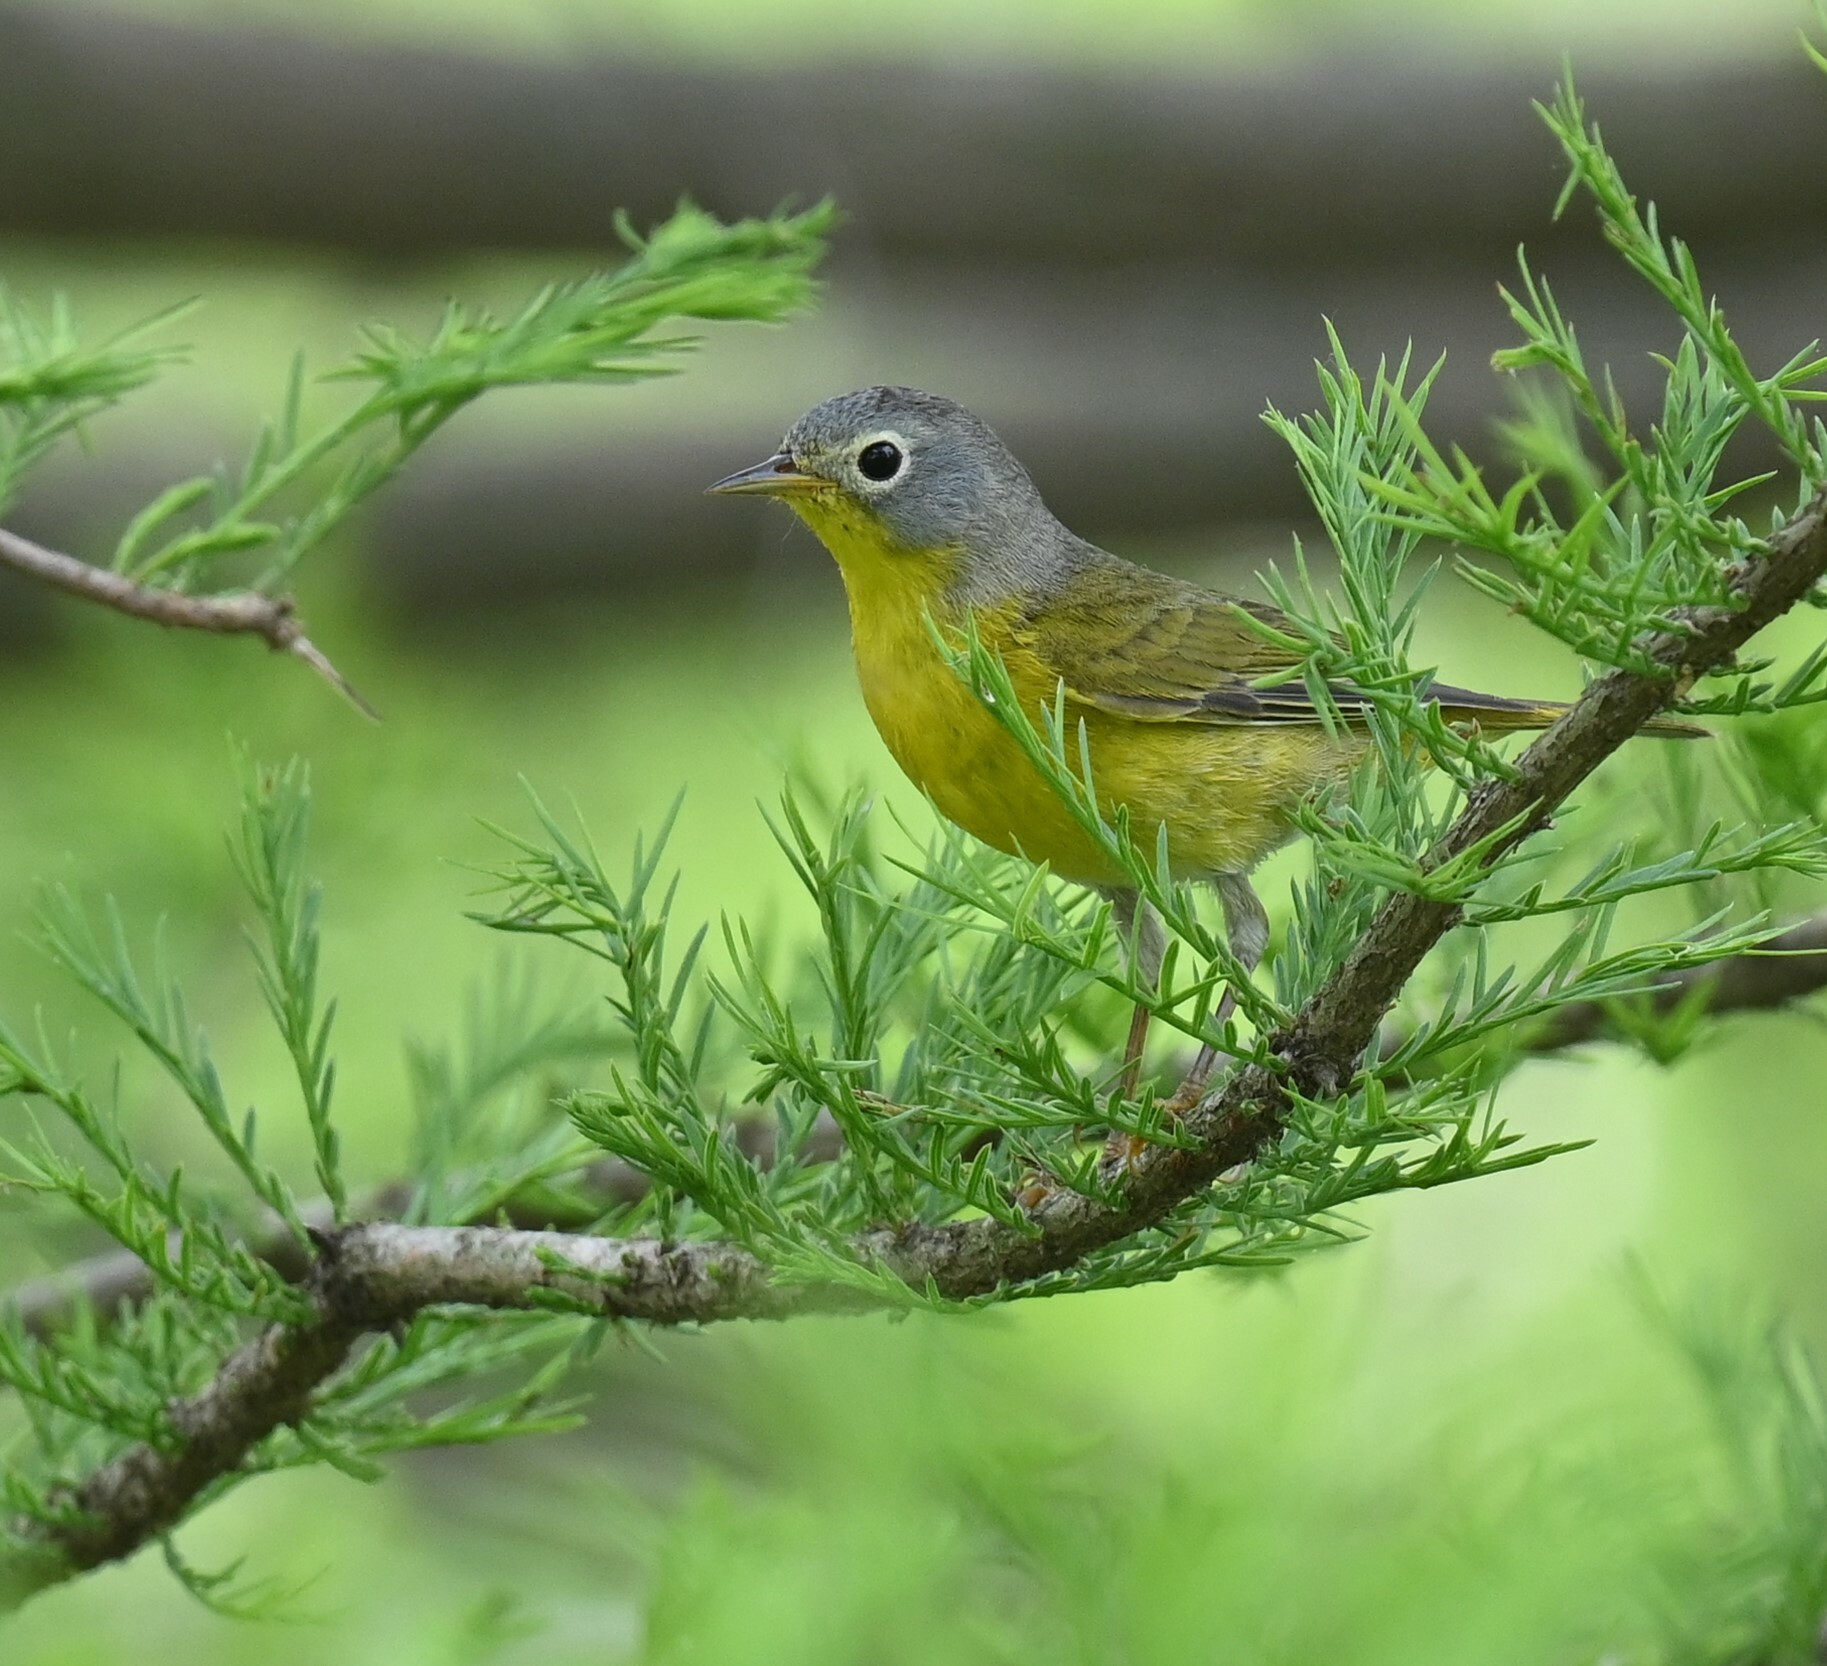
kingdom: Animalia
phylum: Chordata
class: Aves
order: Passeriformes
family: Parulidae
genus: Leiothlypis
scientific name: Leiothlypis ruficapilla
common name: Nashville warbler
